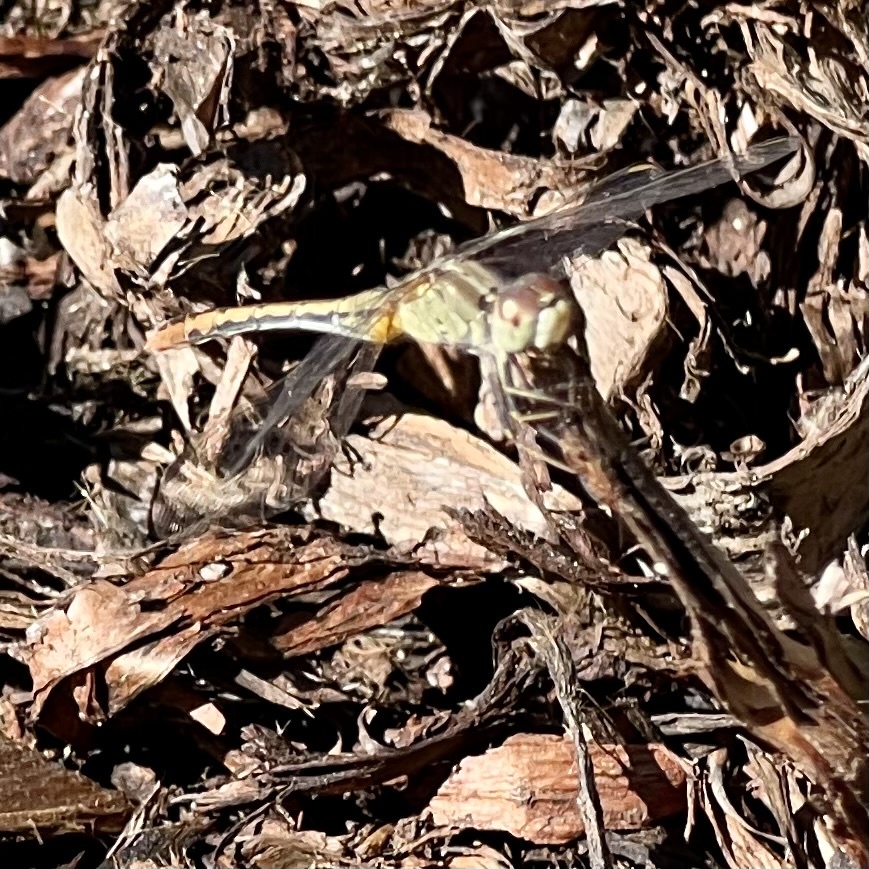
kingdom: Animalia
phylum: Arthropoda
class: Insecta
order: Odonata
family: Libellulidae
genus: Diplacodes
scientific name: Diplacodes bipunctata
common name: Red percher dragonfly
